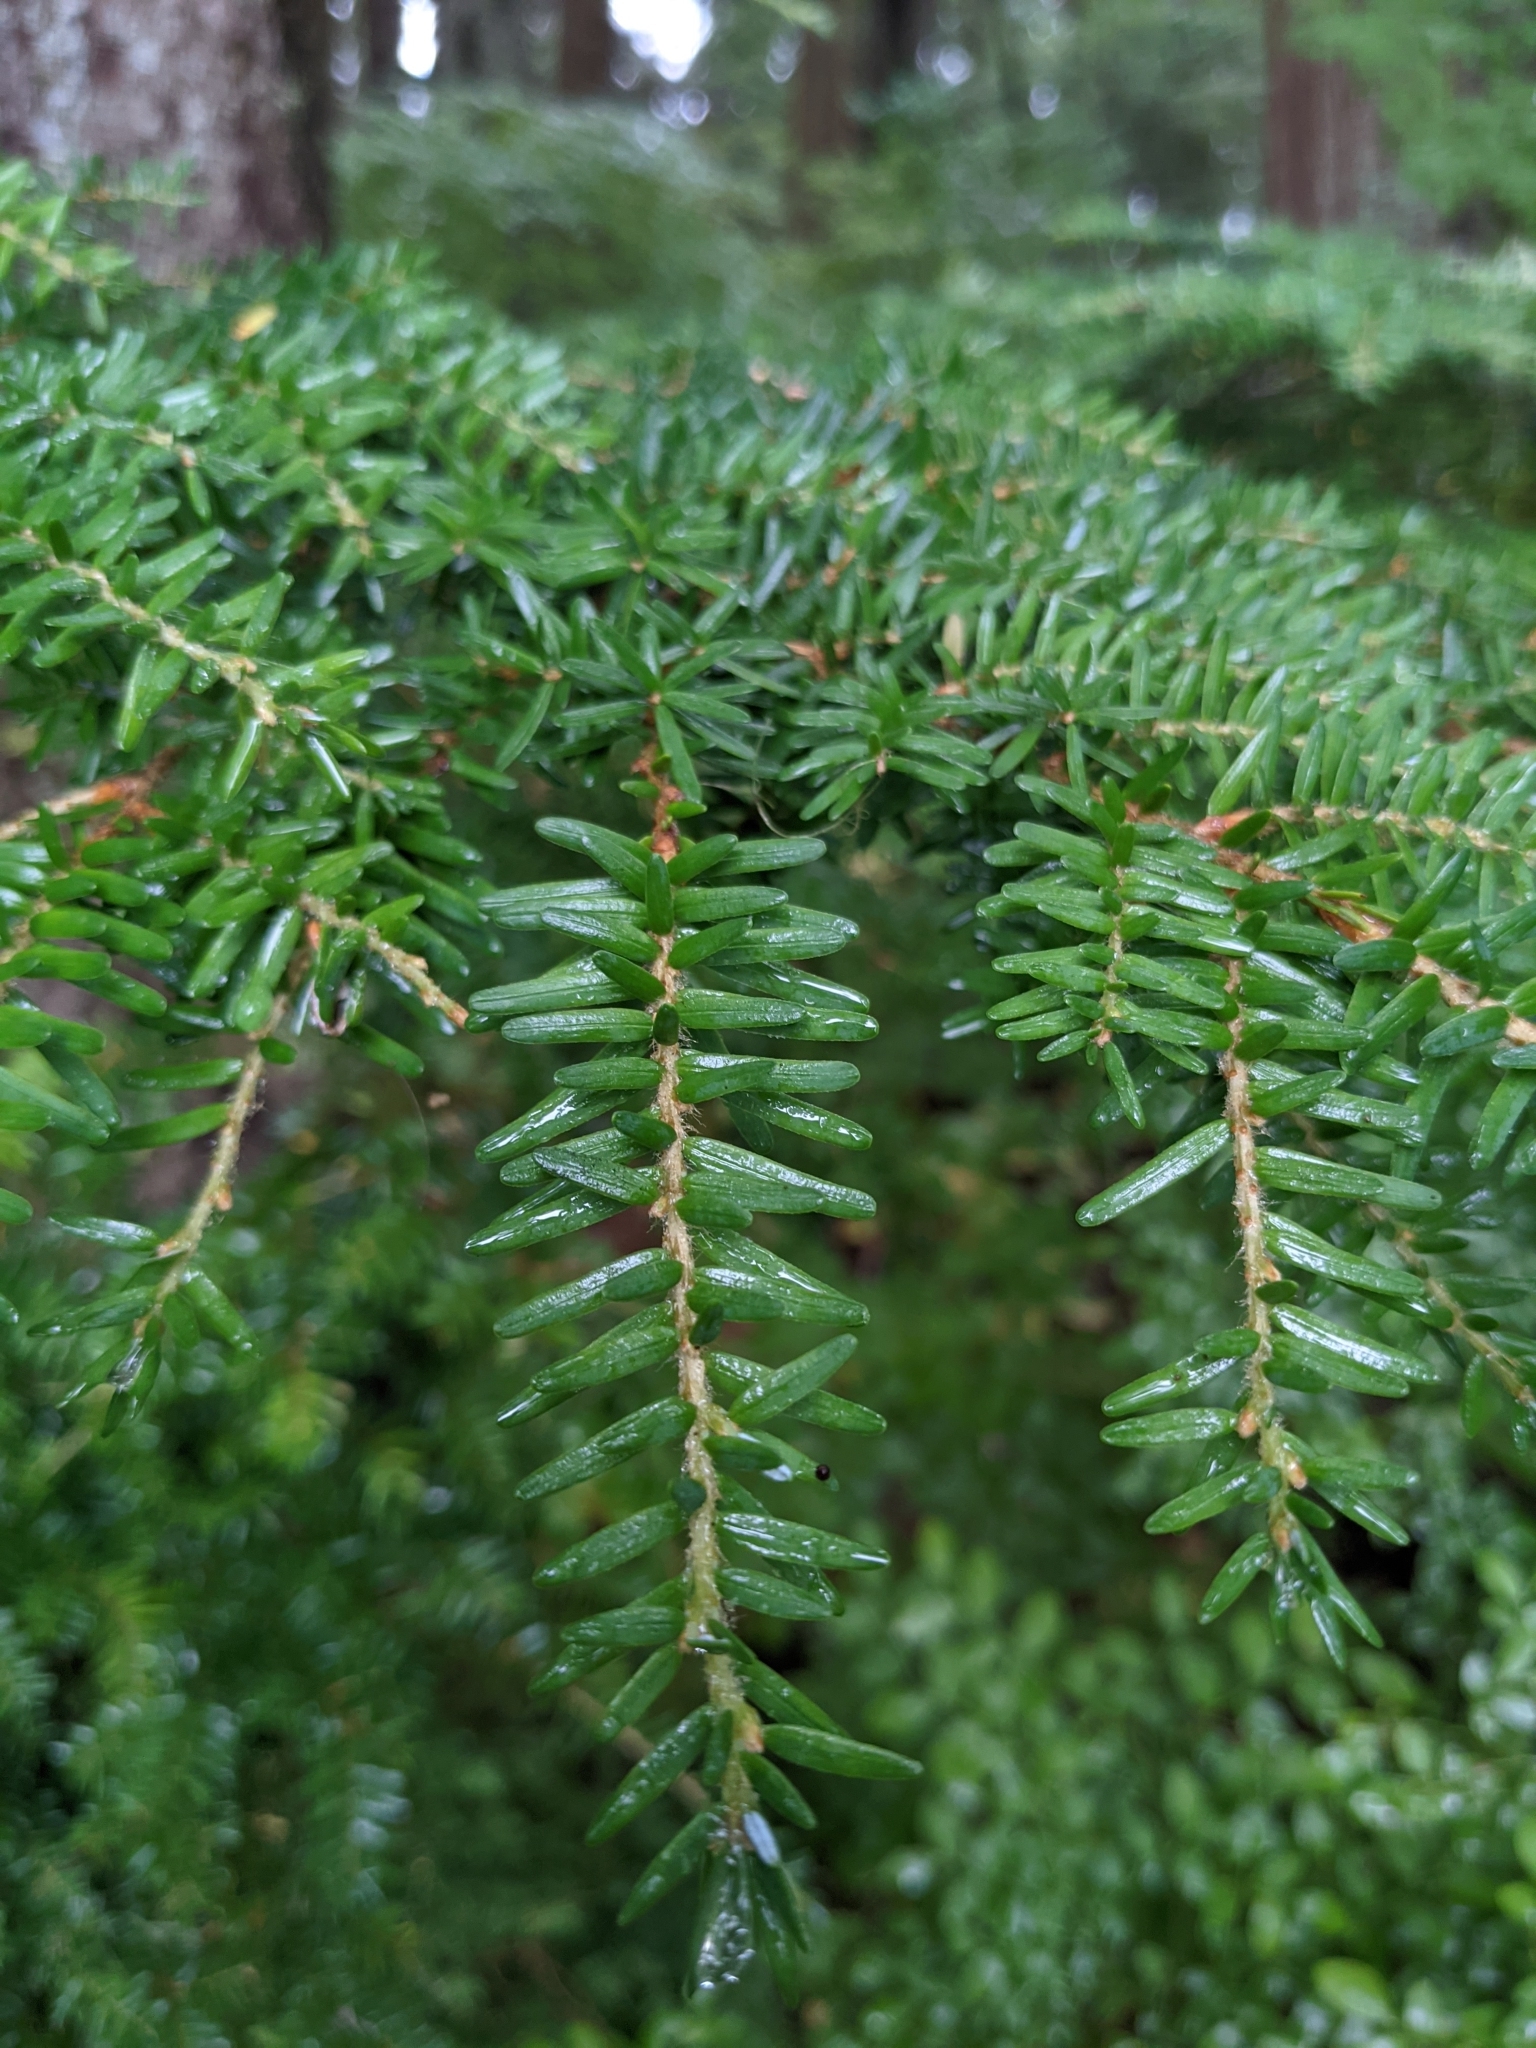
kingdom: Plantae
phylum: Tracheophyta
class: Pinopsida
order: Pinales
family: Pinaceae
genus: Tsuga
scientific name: Tsuga heterophylla
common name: Western hemlock
